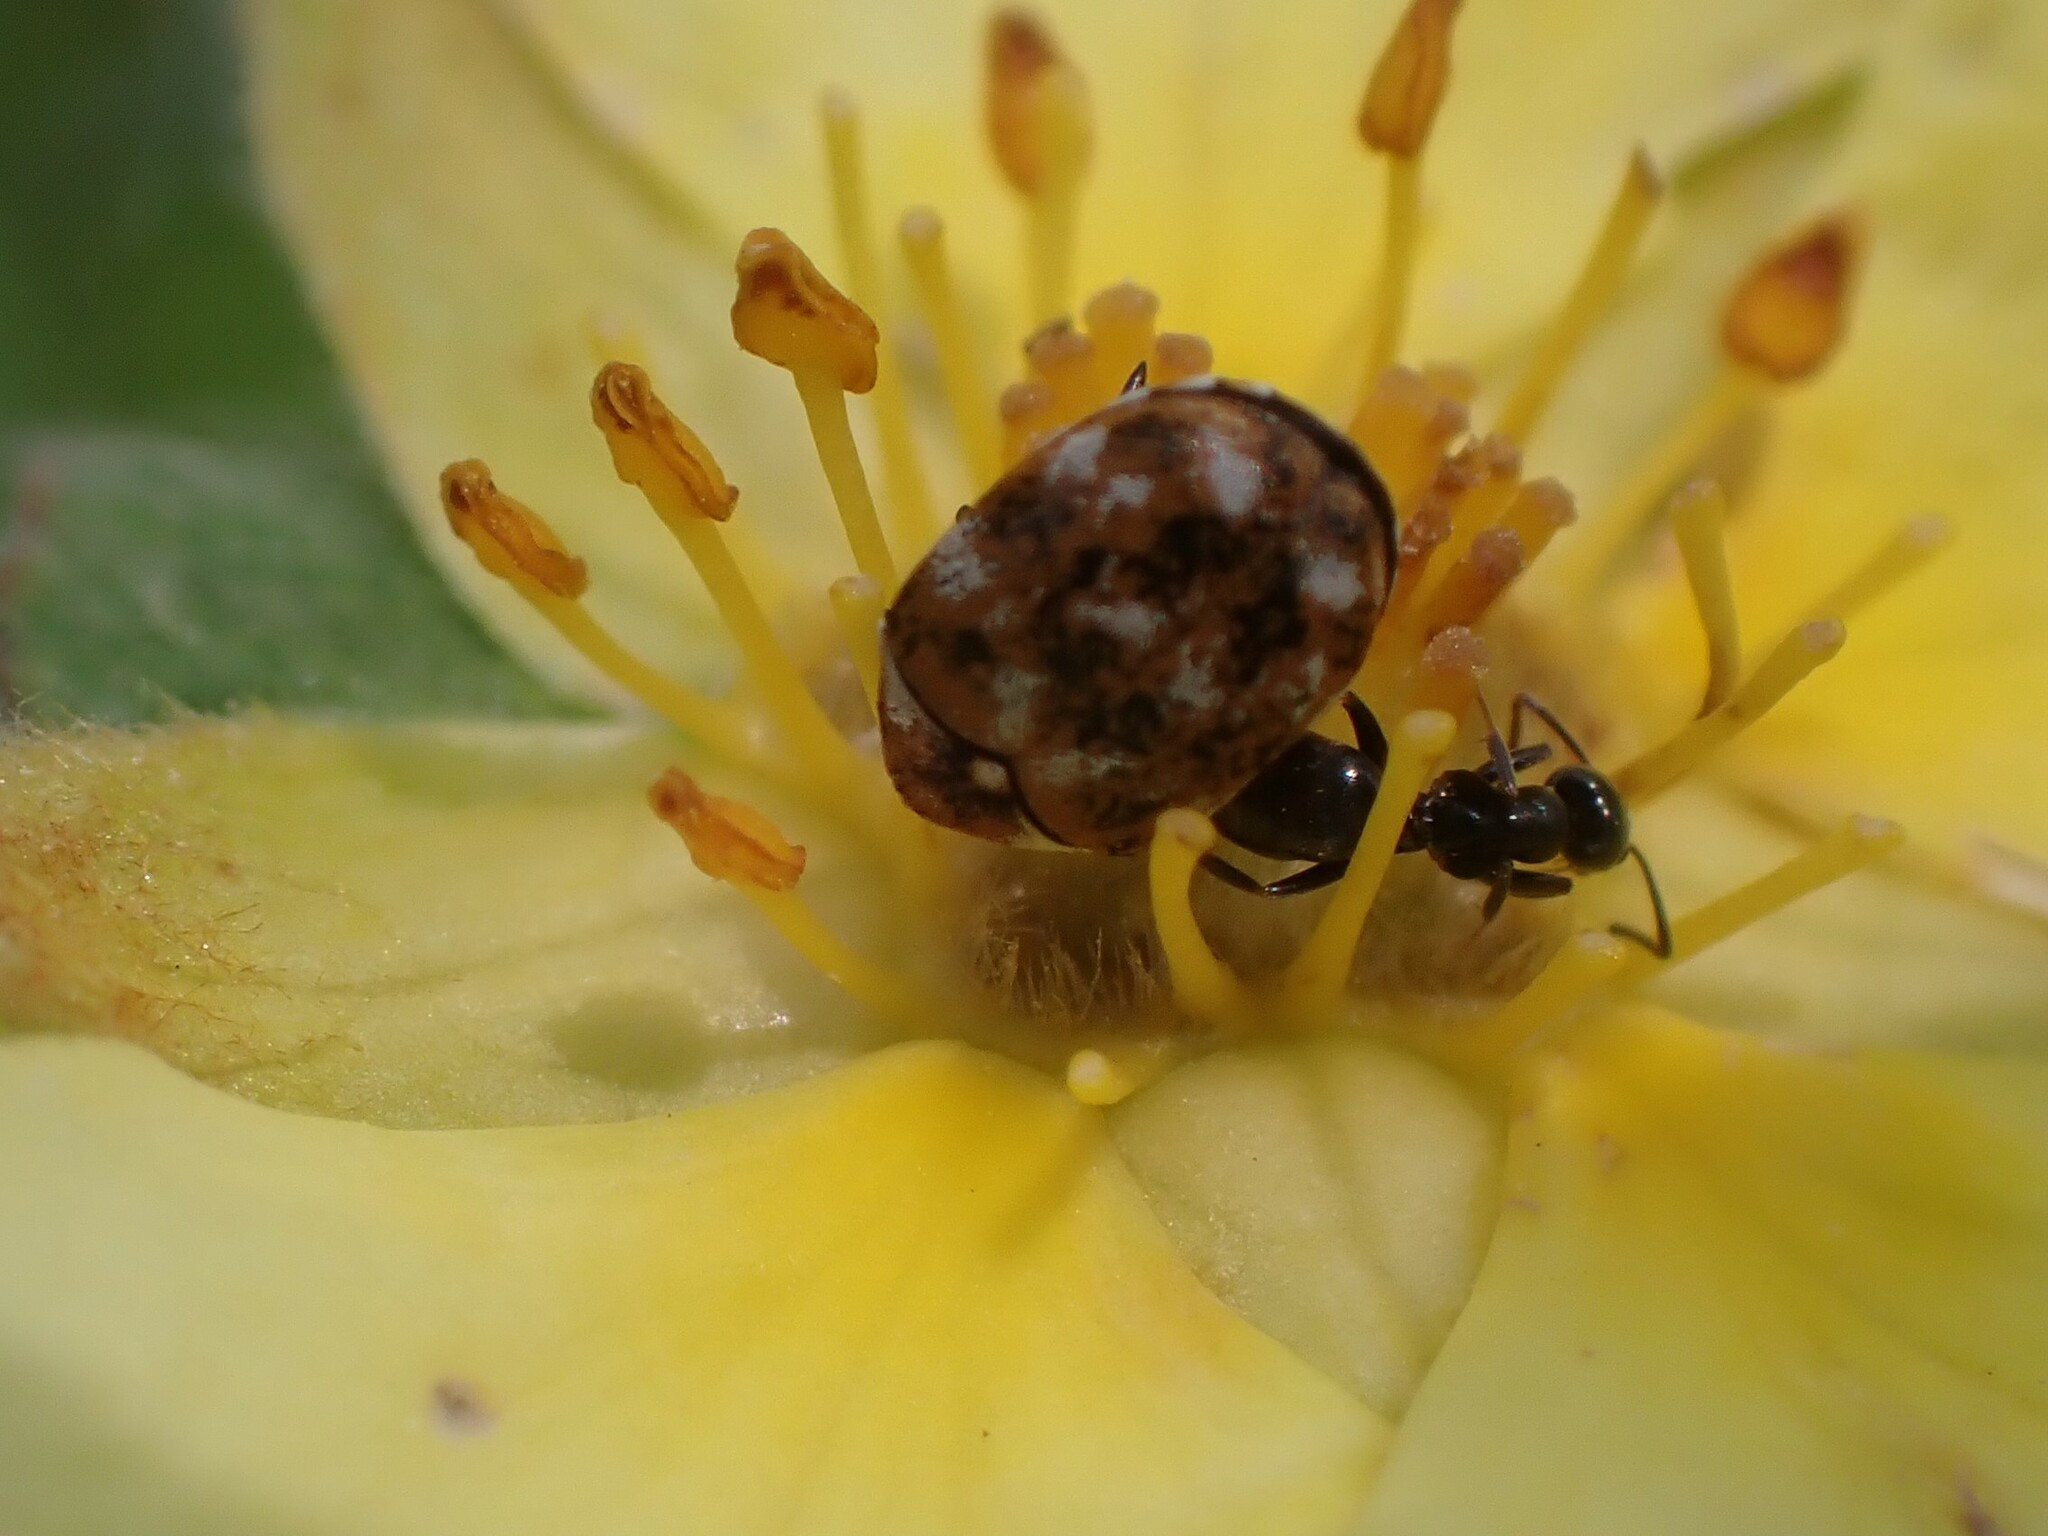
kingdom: Animalia
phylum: Arthropoda
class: Insecta
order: Coleoptera
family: Dermestidae
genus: Anthrenus
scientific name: Anthrenus verbasci
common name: Varied carpet beetle
